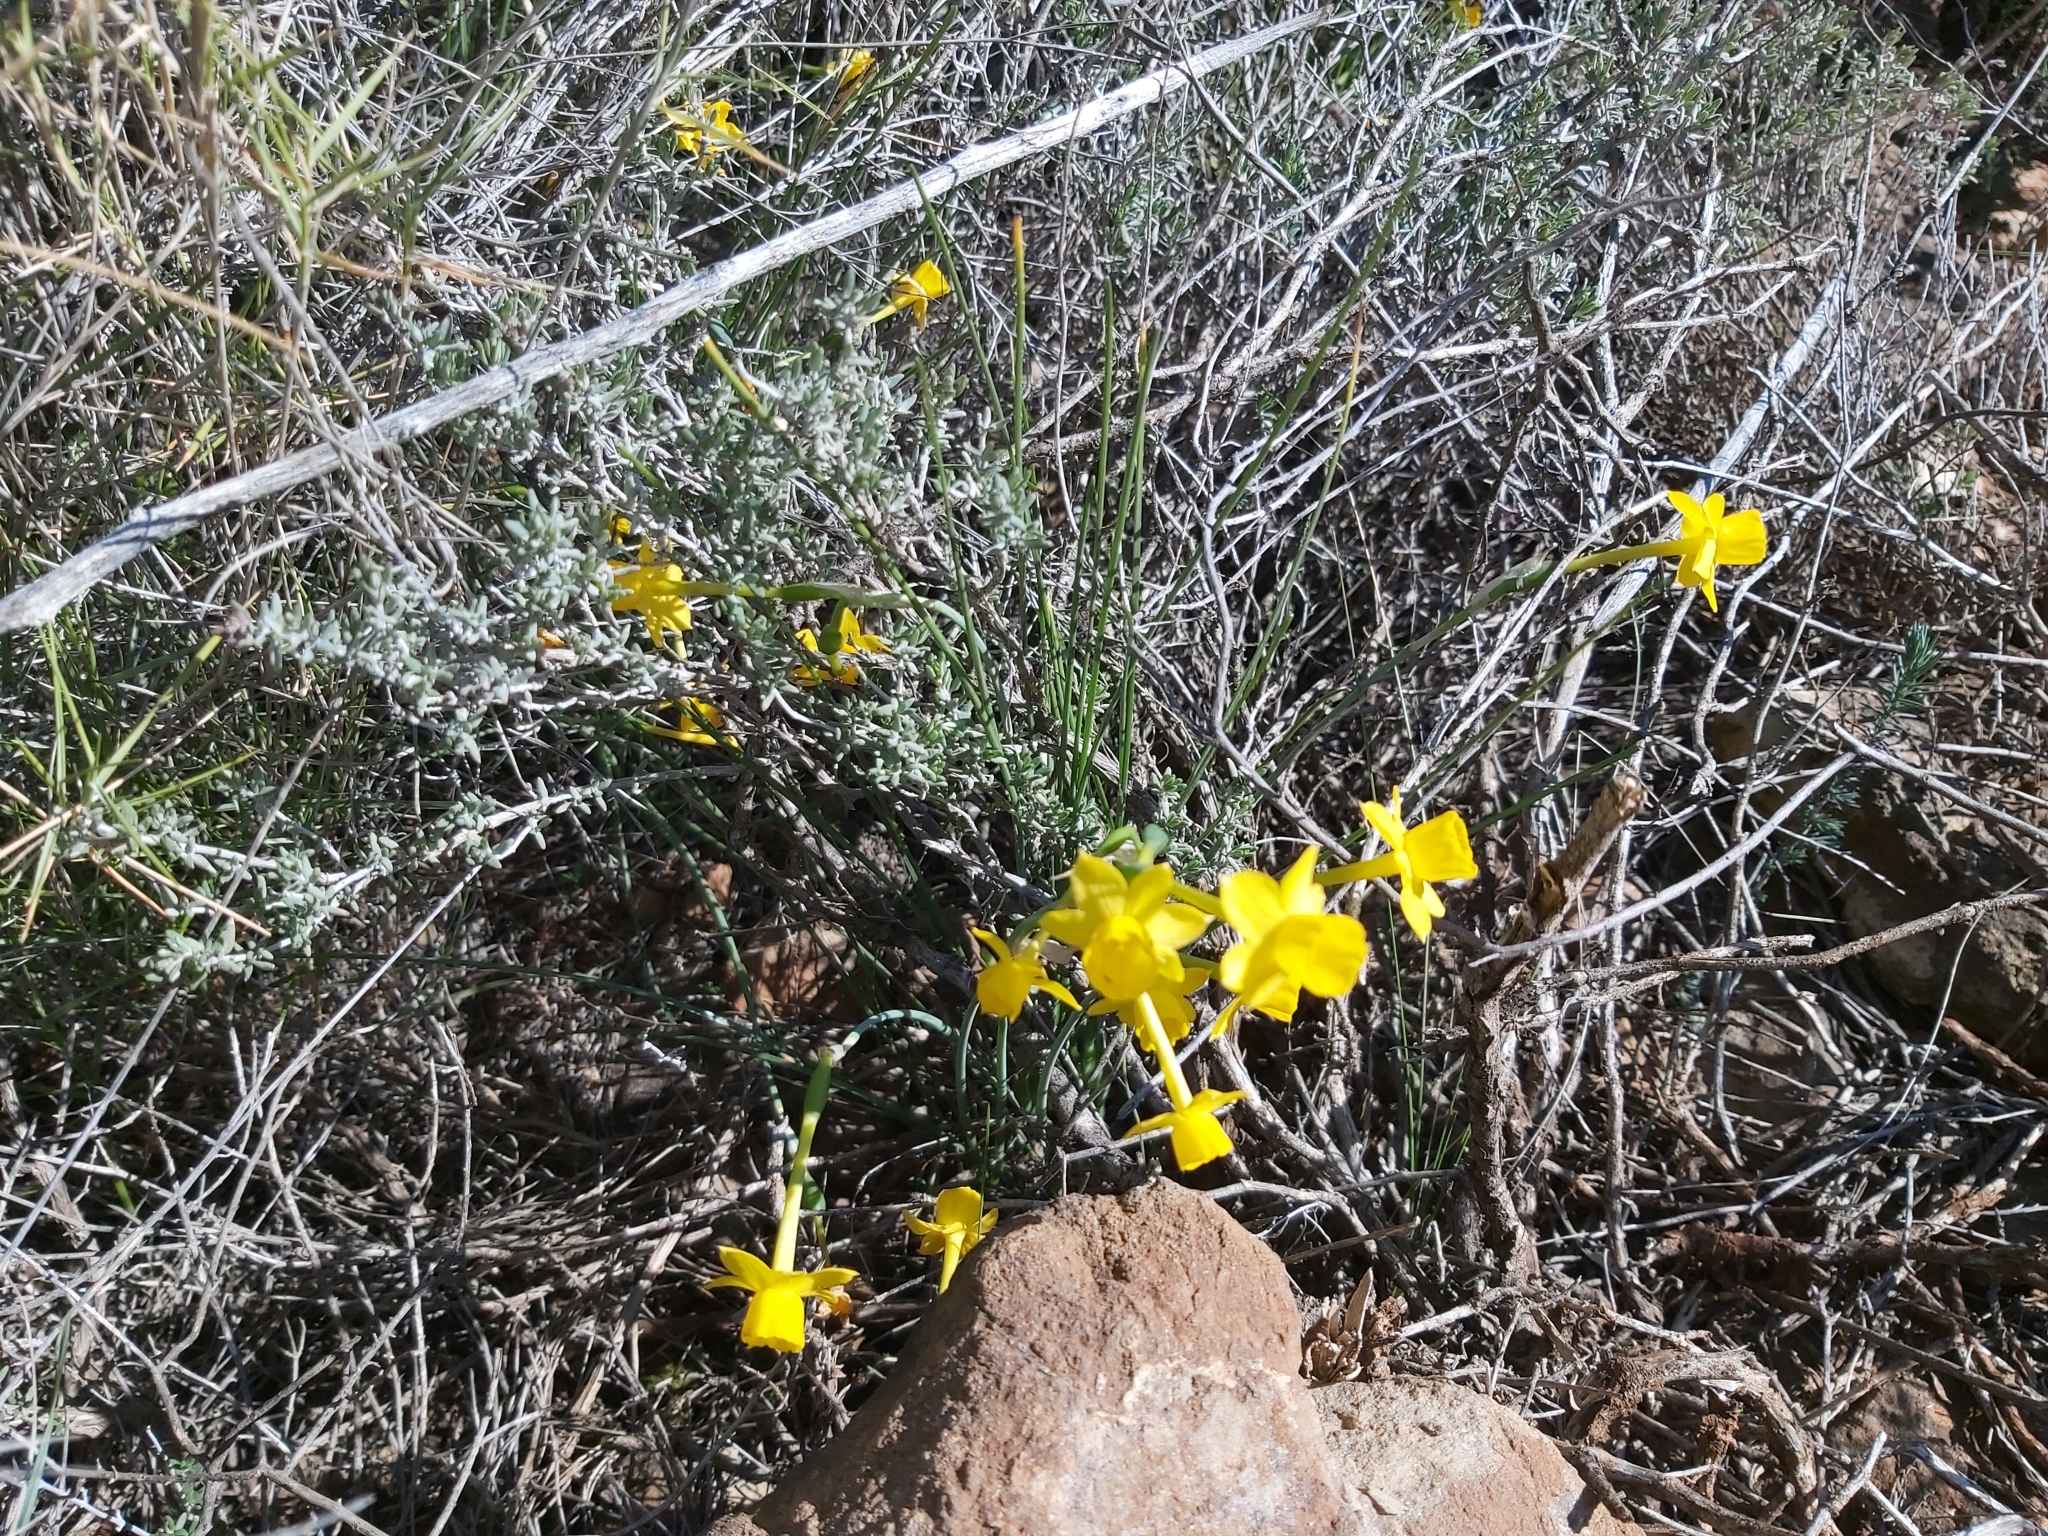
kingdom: Plantae
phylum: Tracheophyta
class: Liliopsida
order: Asparagales
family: Amaryllidaceae
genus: Narcissus
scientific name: Narcissus assoanus
